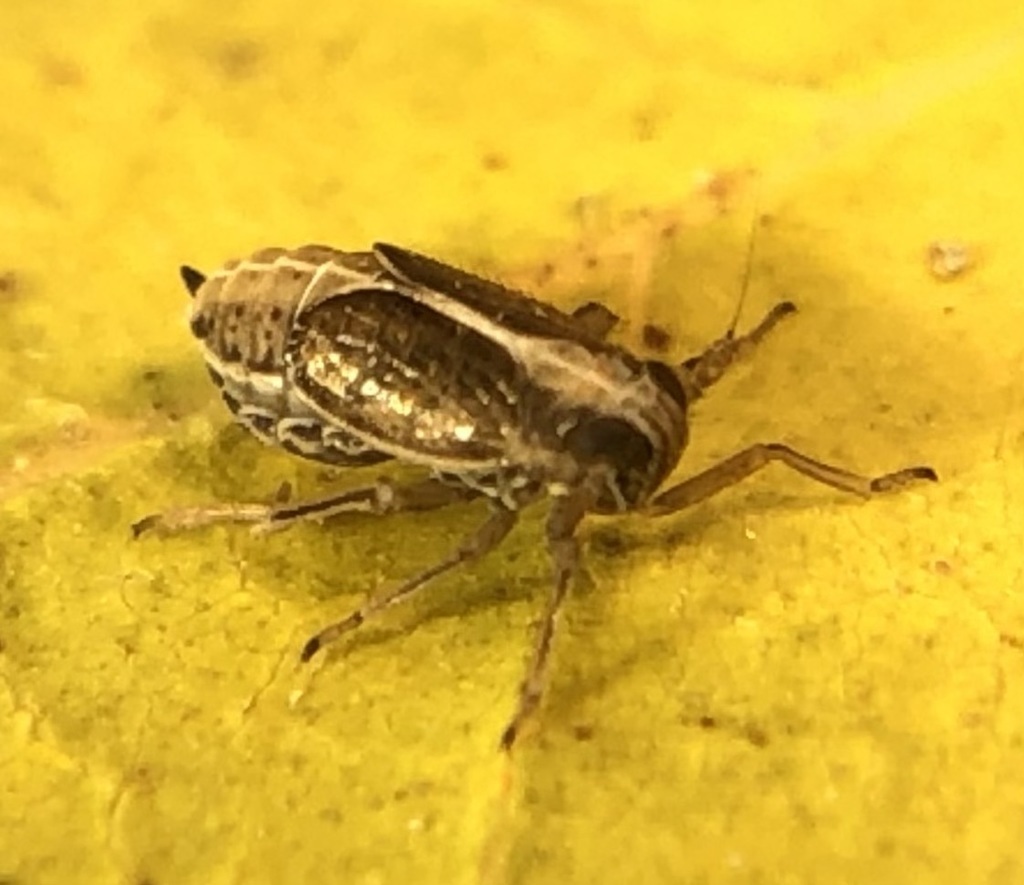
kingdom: Animalia
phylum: Arthropoda
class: Insecta
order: Hemiptera
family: Delphacidae
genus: Muellerianella
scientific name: Muellerianella laminalis
